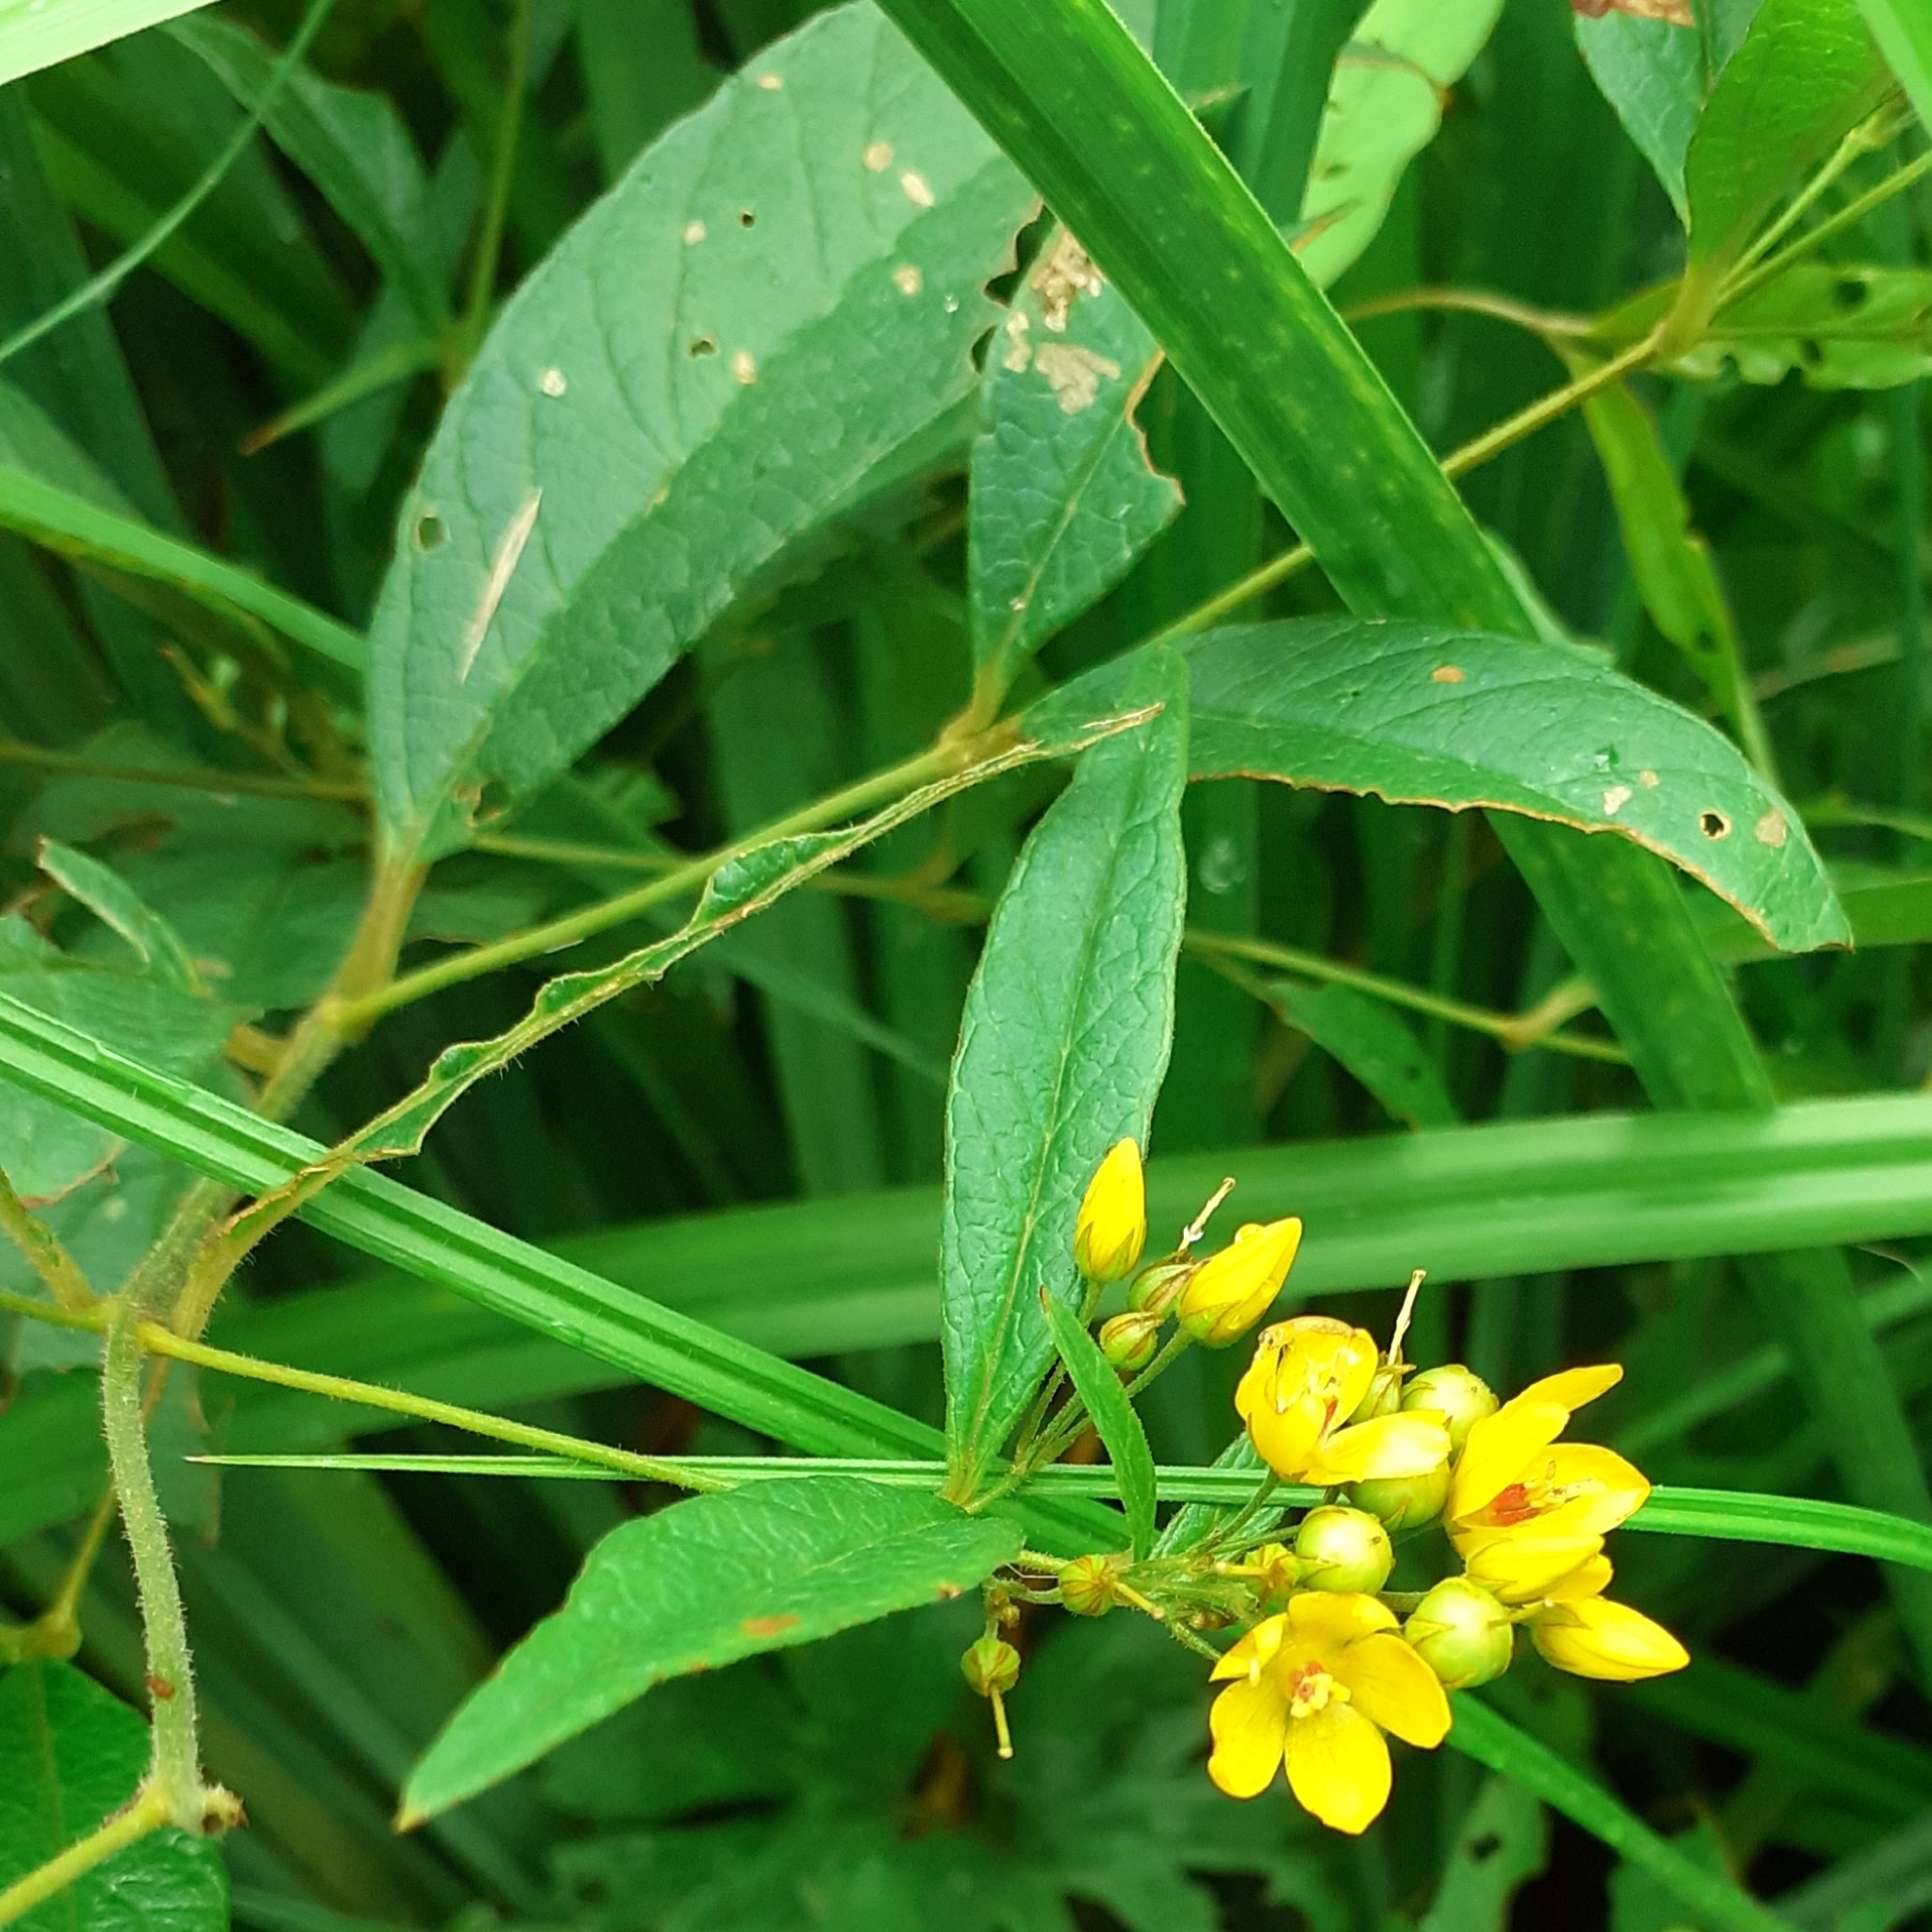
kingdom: Plantae
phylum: Tracheophyta
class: Magnoliopsida
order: Ericales
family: Primulaceae
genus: Lysimachia
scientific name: Lysimachia vulgaris
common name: Yellow loosestrife
